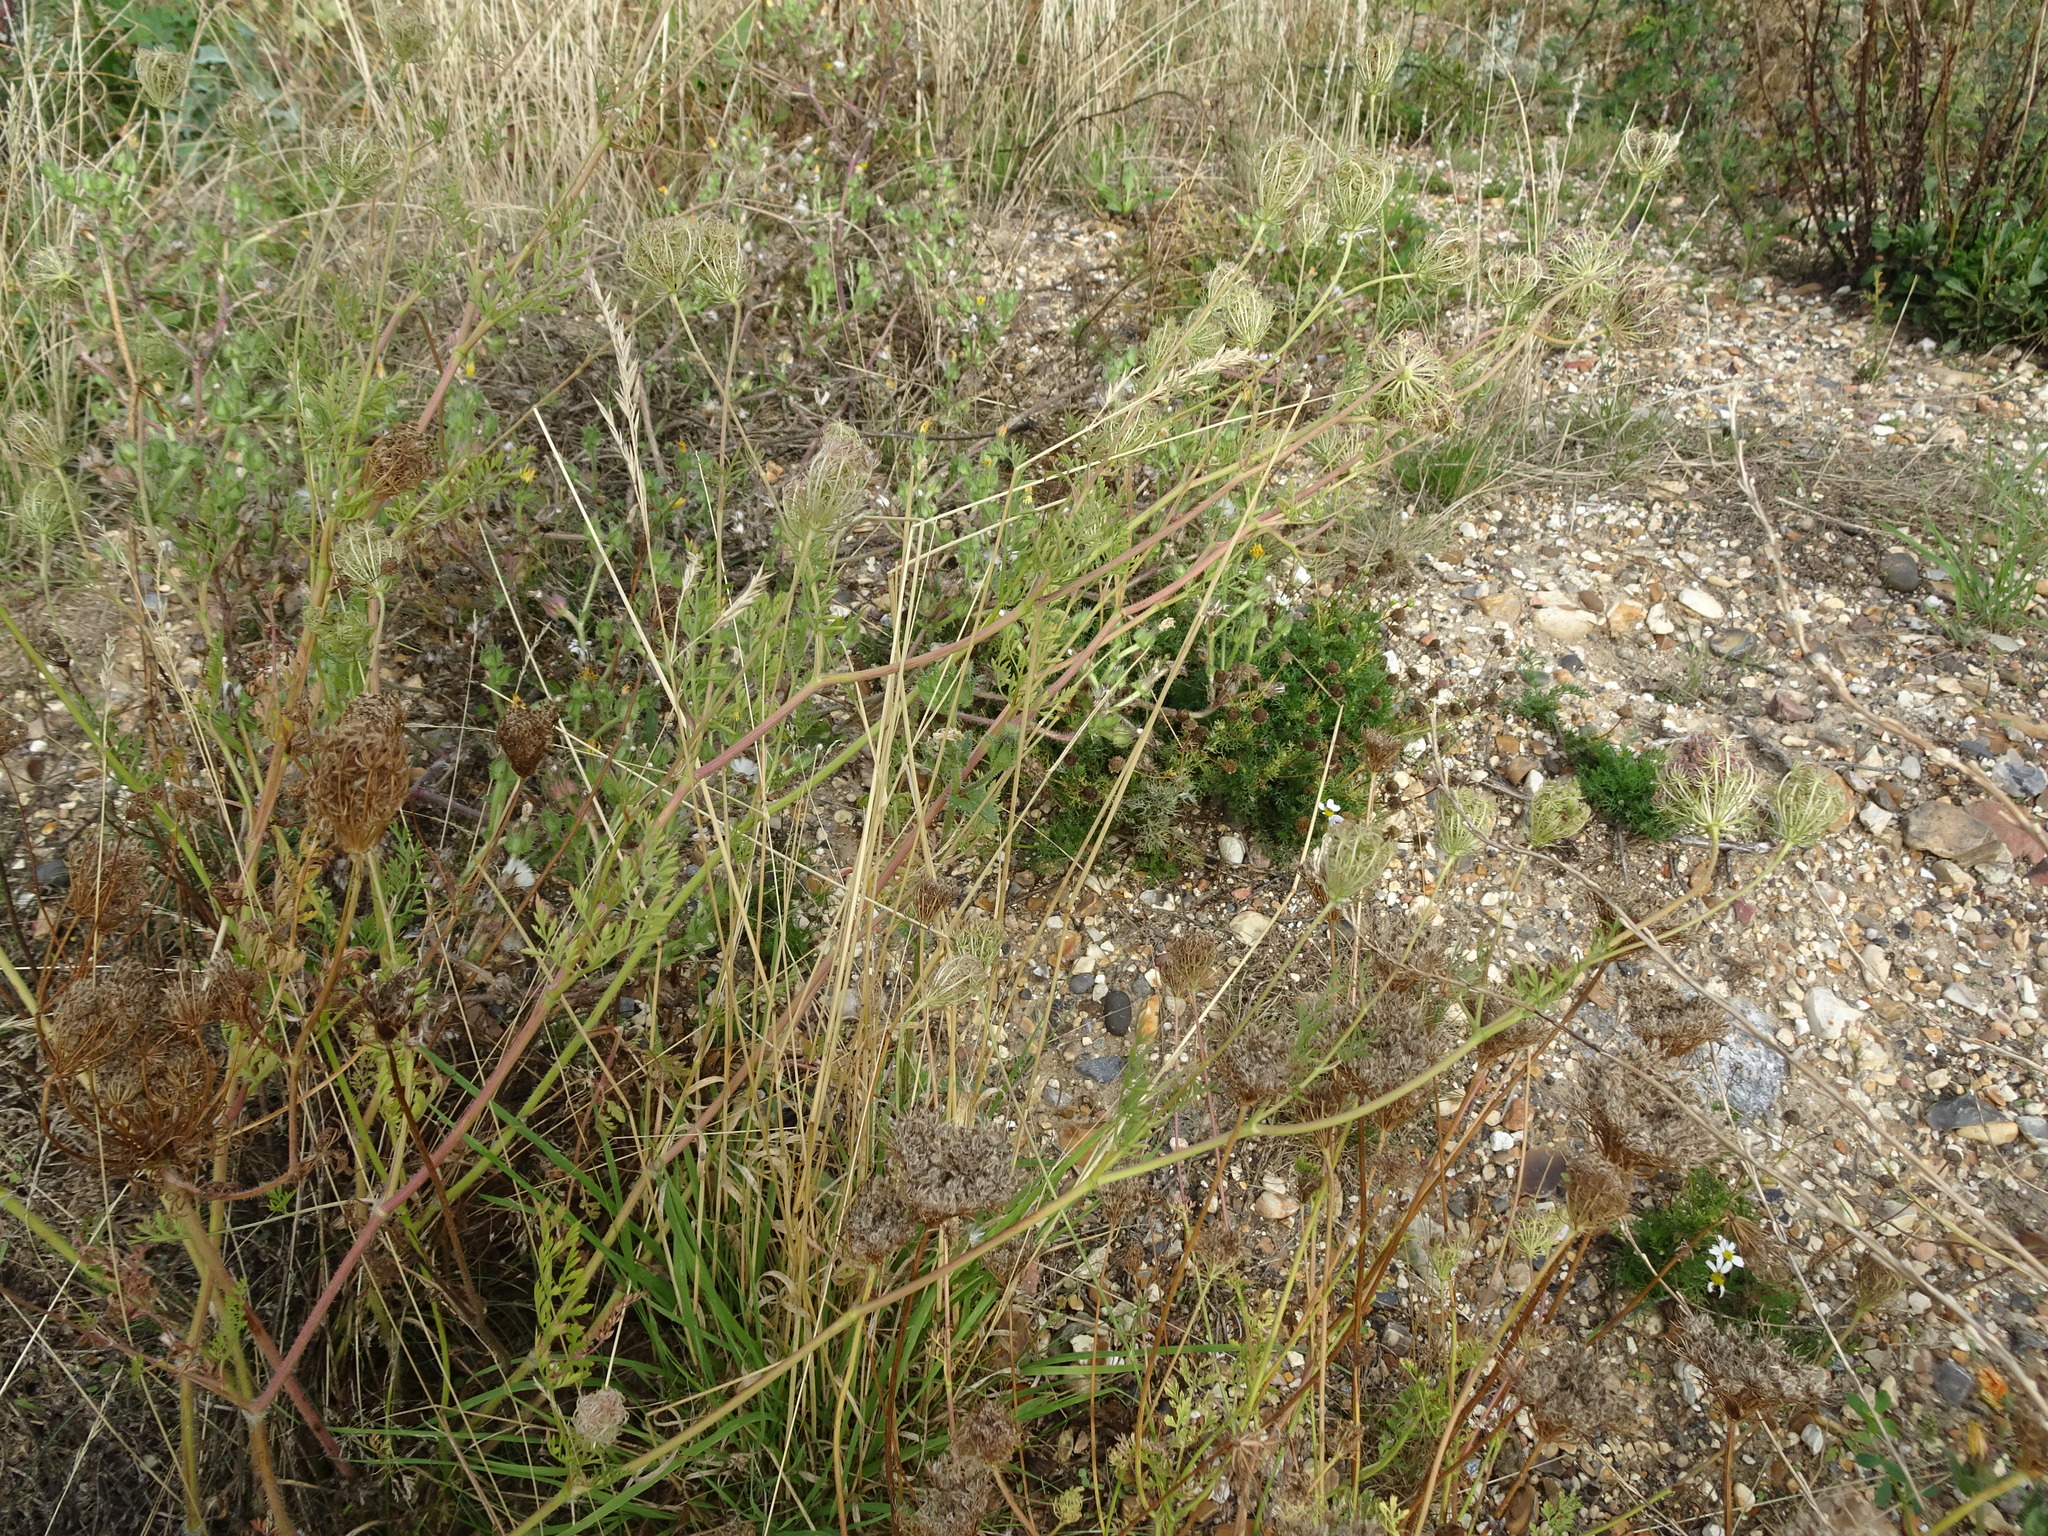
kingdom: Plantae
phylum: Tracheophyta
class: Magnoliopsida
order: Apiales
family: Apiaceae
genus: Daucus
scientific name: Daucus carota
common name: Wild carrot
